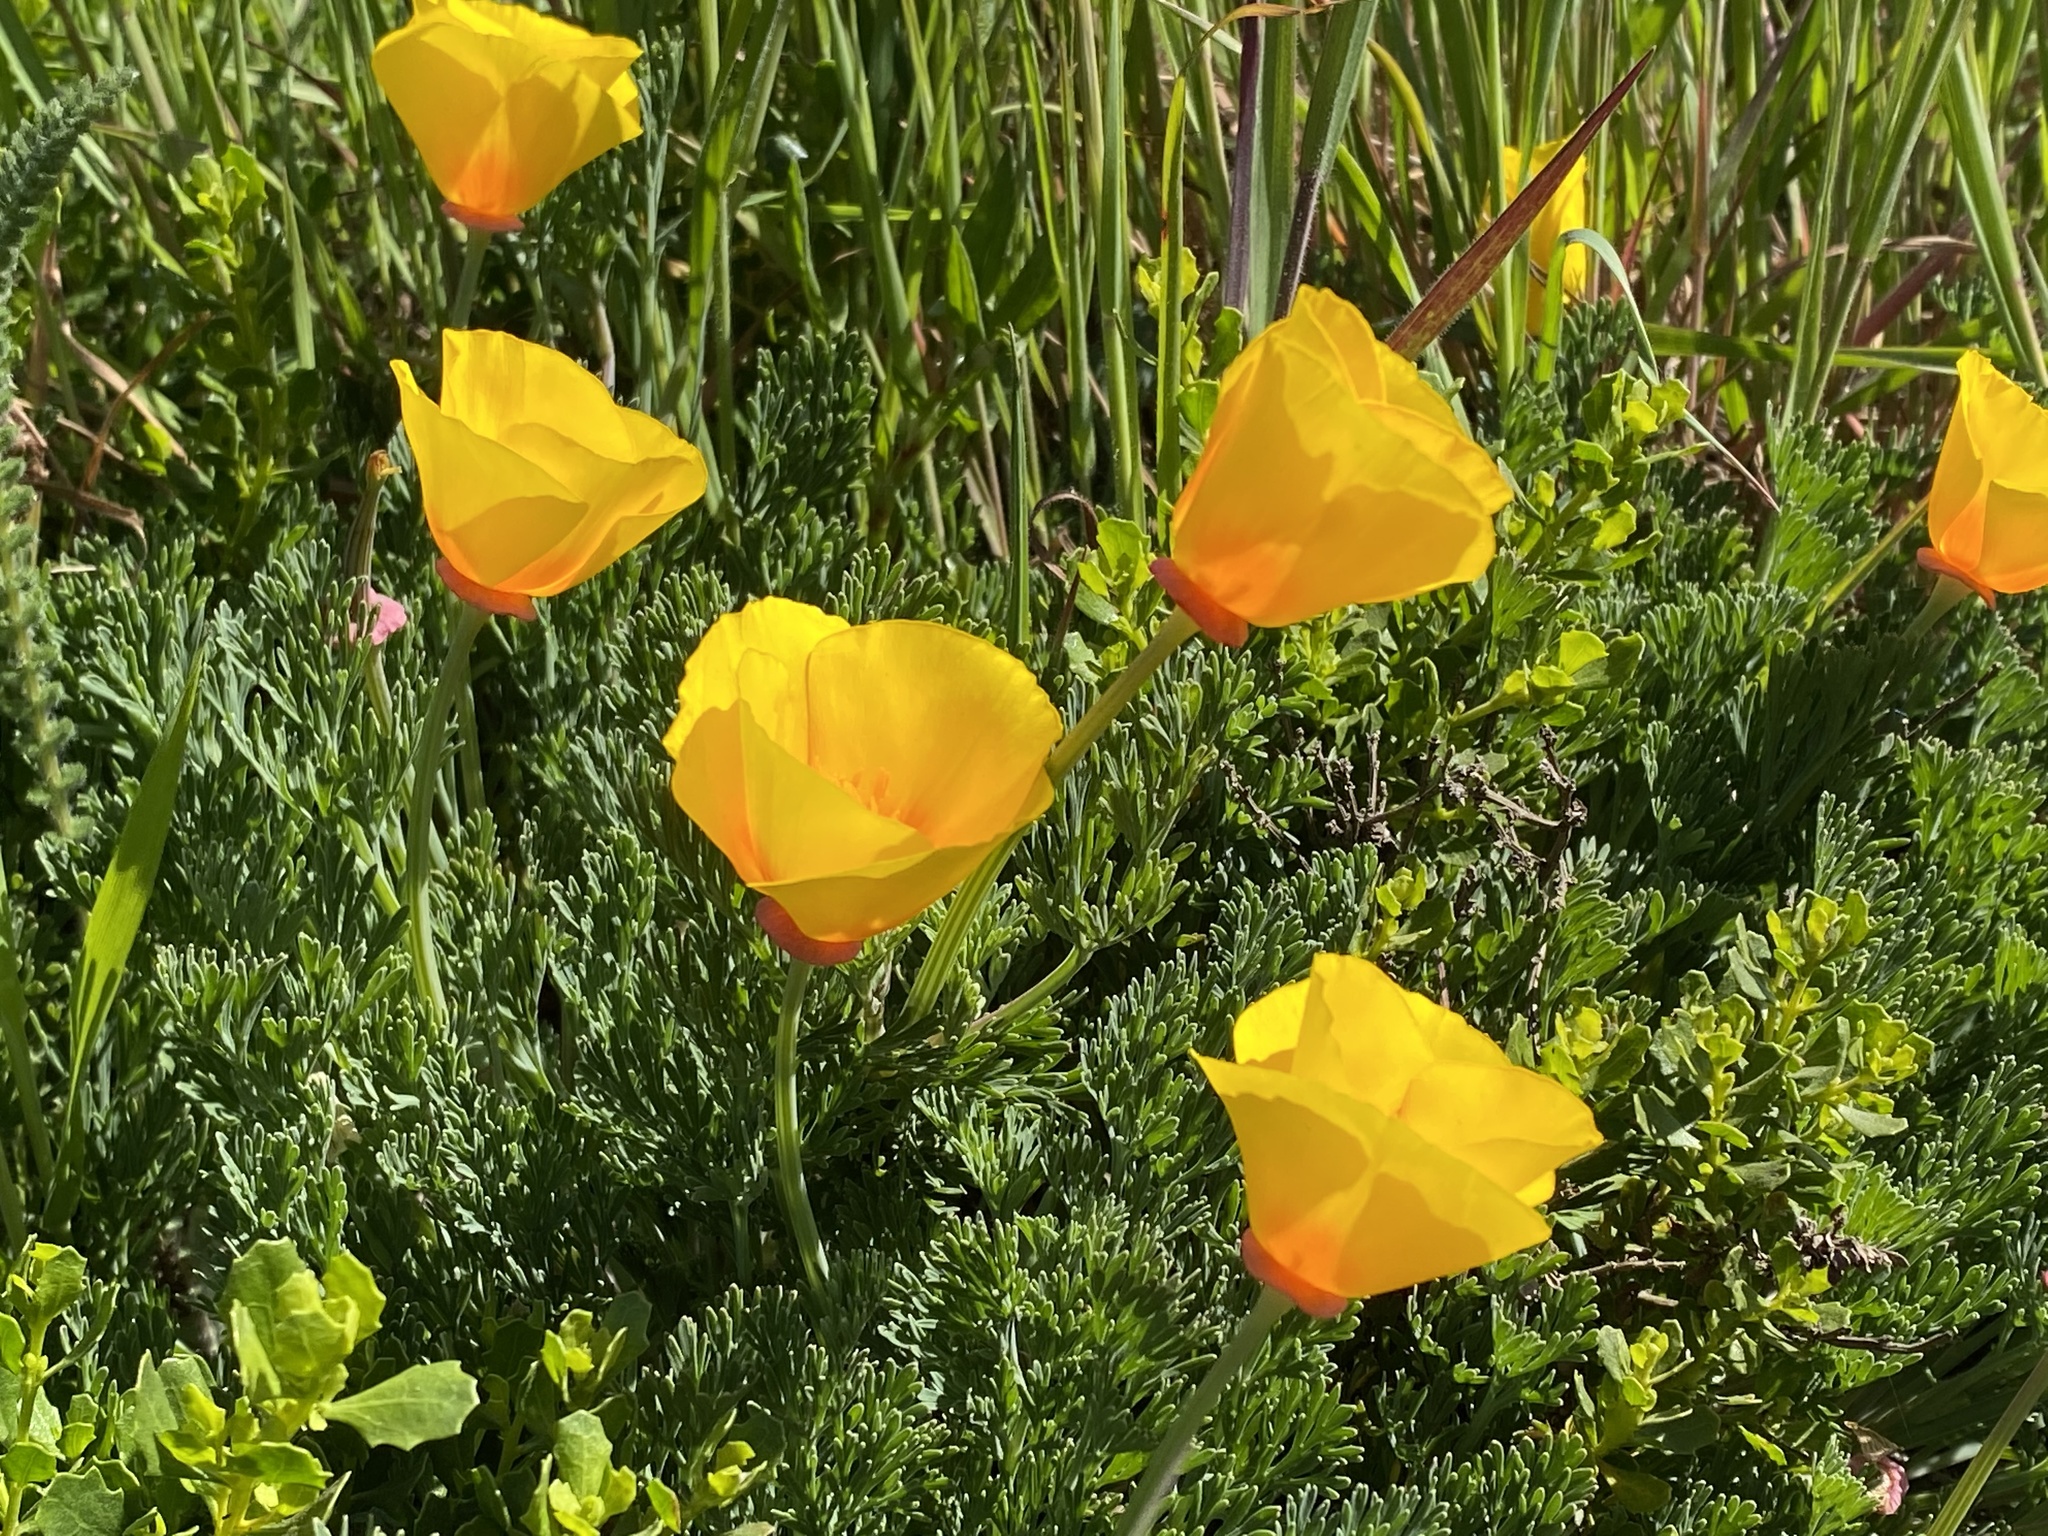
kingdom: Plantae
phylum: Tracheophyta
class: Magnoliopsida
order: Ranunculales
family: Papaveraceae
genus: Eschscholzia
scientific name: Eschscholzia californica
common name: California poppy
